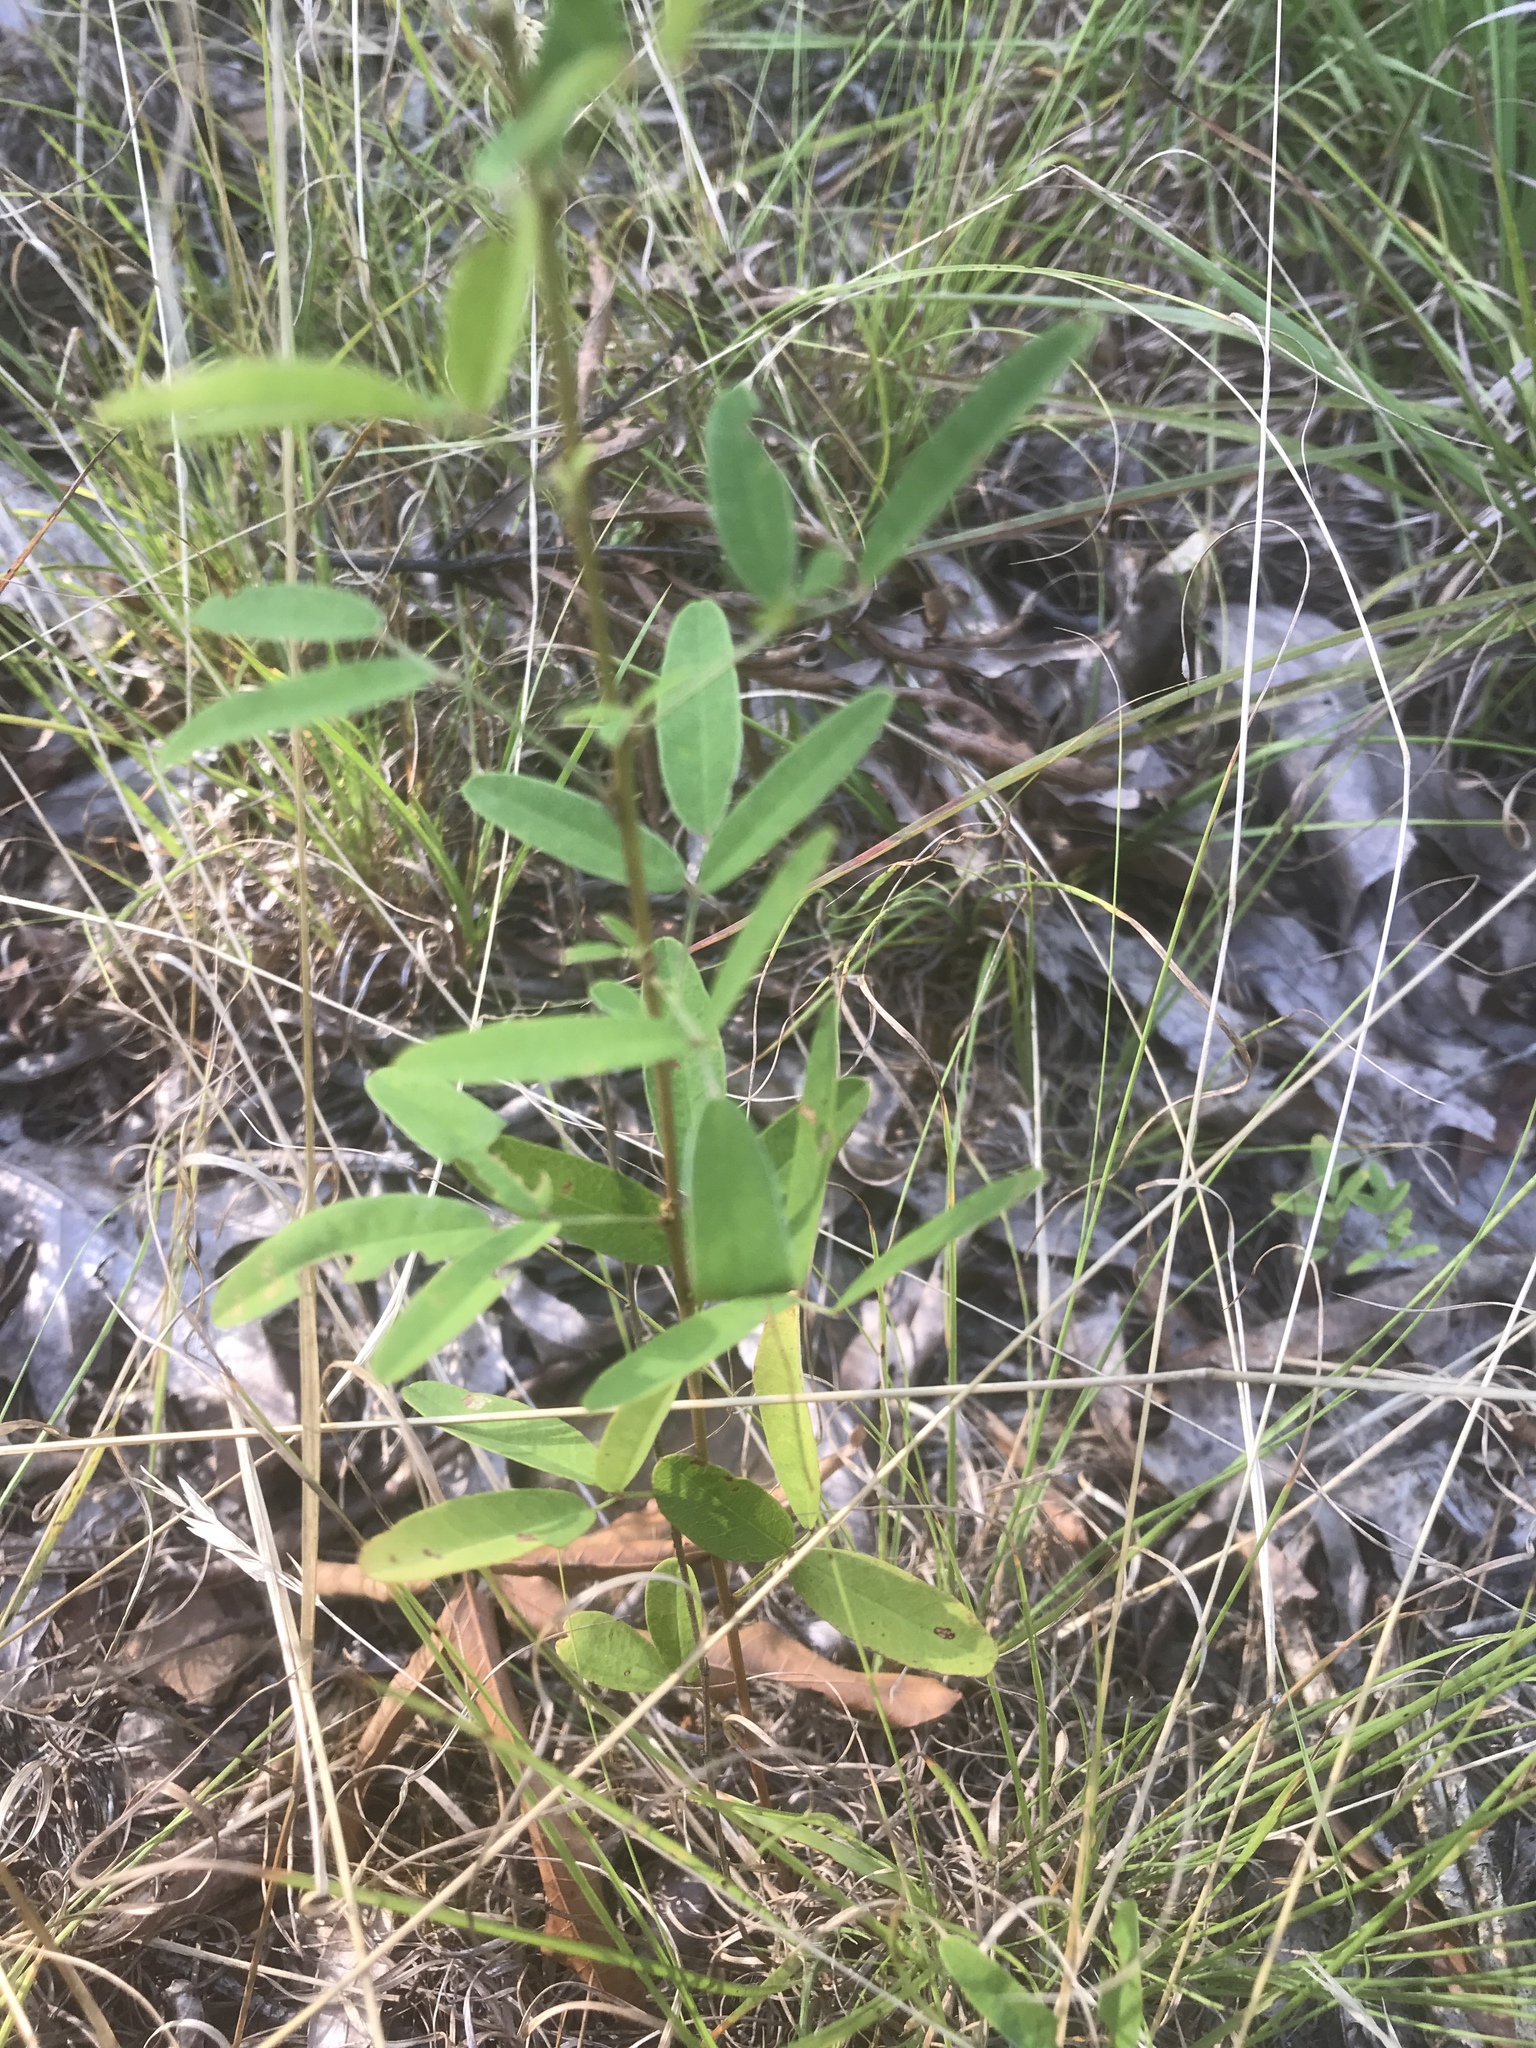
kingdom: Plantae
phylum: Tracheophyta
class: Magnoliopsida
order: Fabales
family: Fabaceae
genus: Lespedeza
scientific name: Lespedeza virginica
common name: Slender bush-clover
